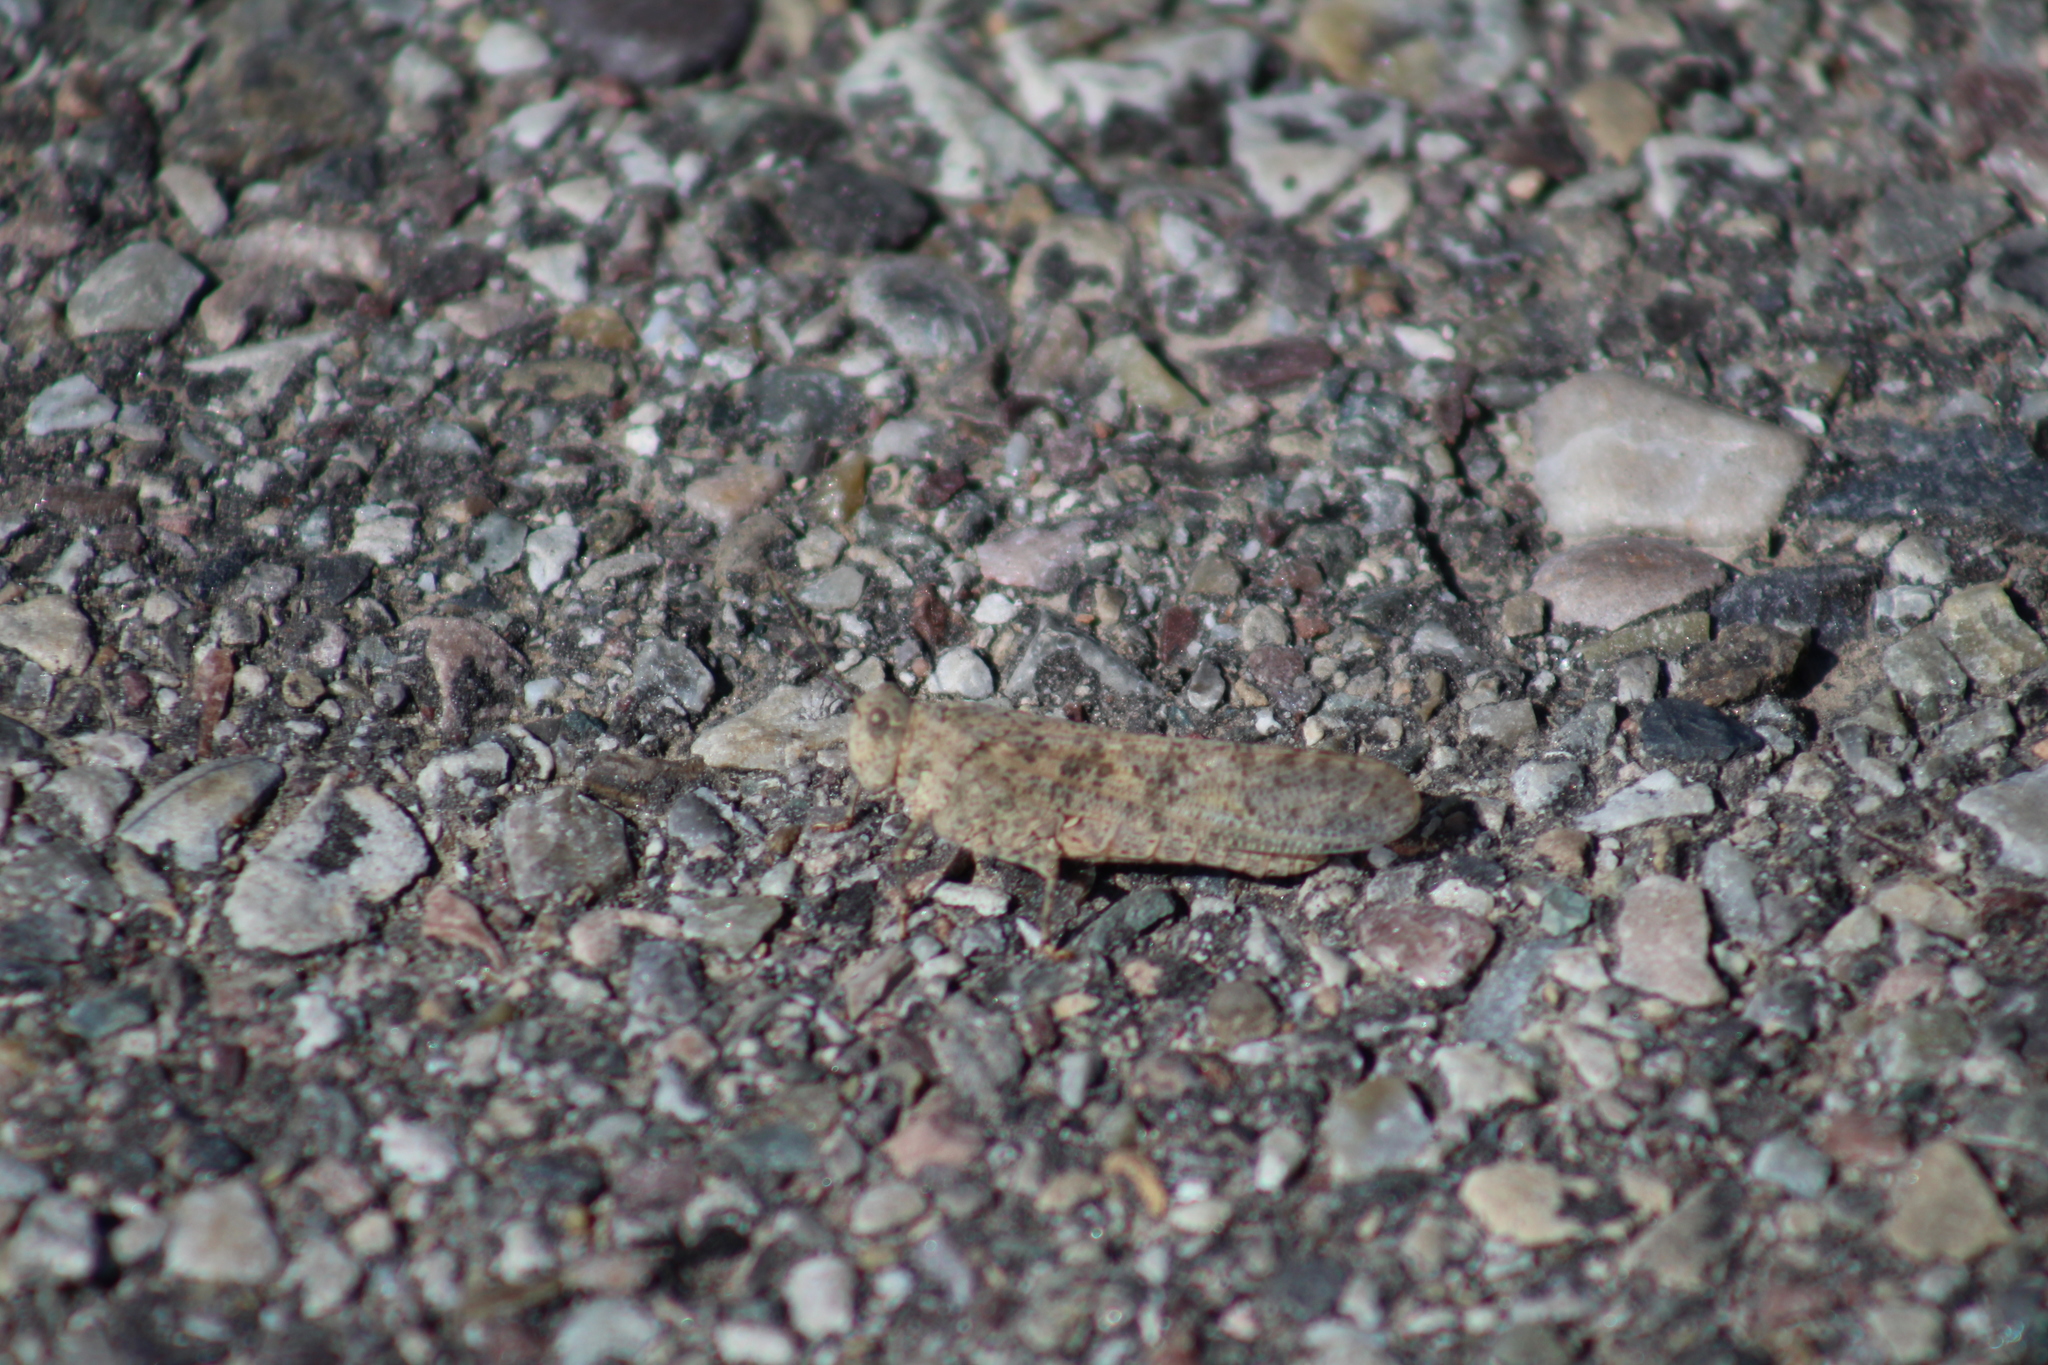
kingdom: Animalia
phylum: Arthropoda
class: Insecta
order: Orthoptera
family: Acrididae
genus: Dissosteira
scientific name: Dissosteira carolina
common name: Carolina grasshopper
